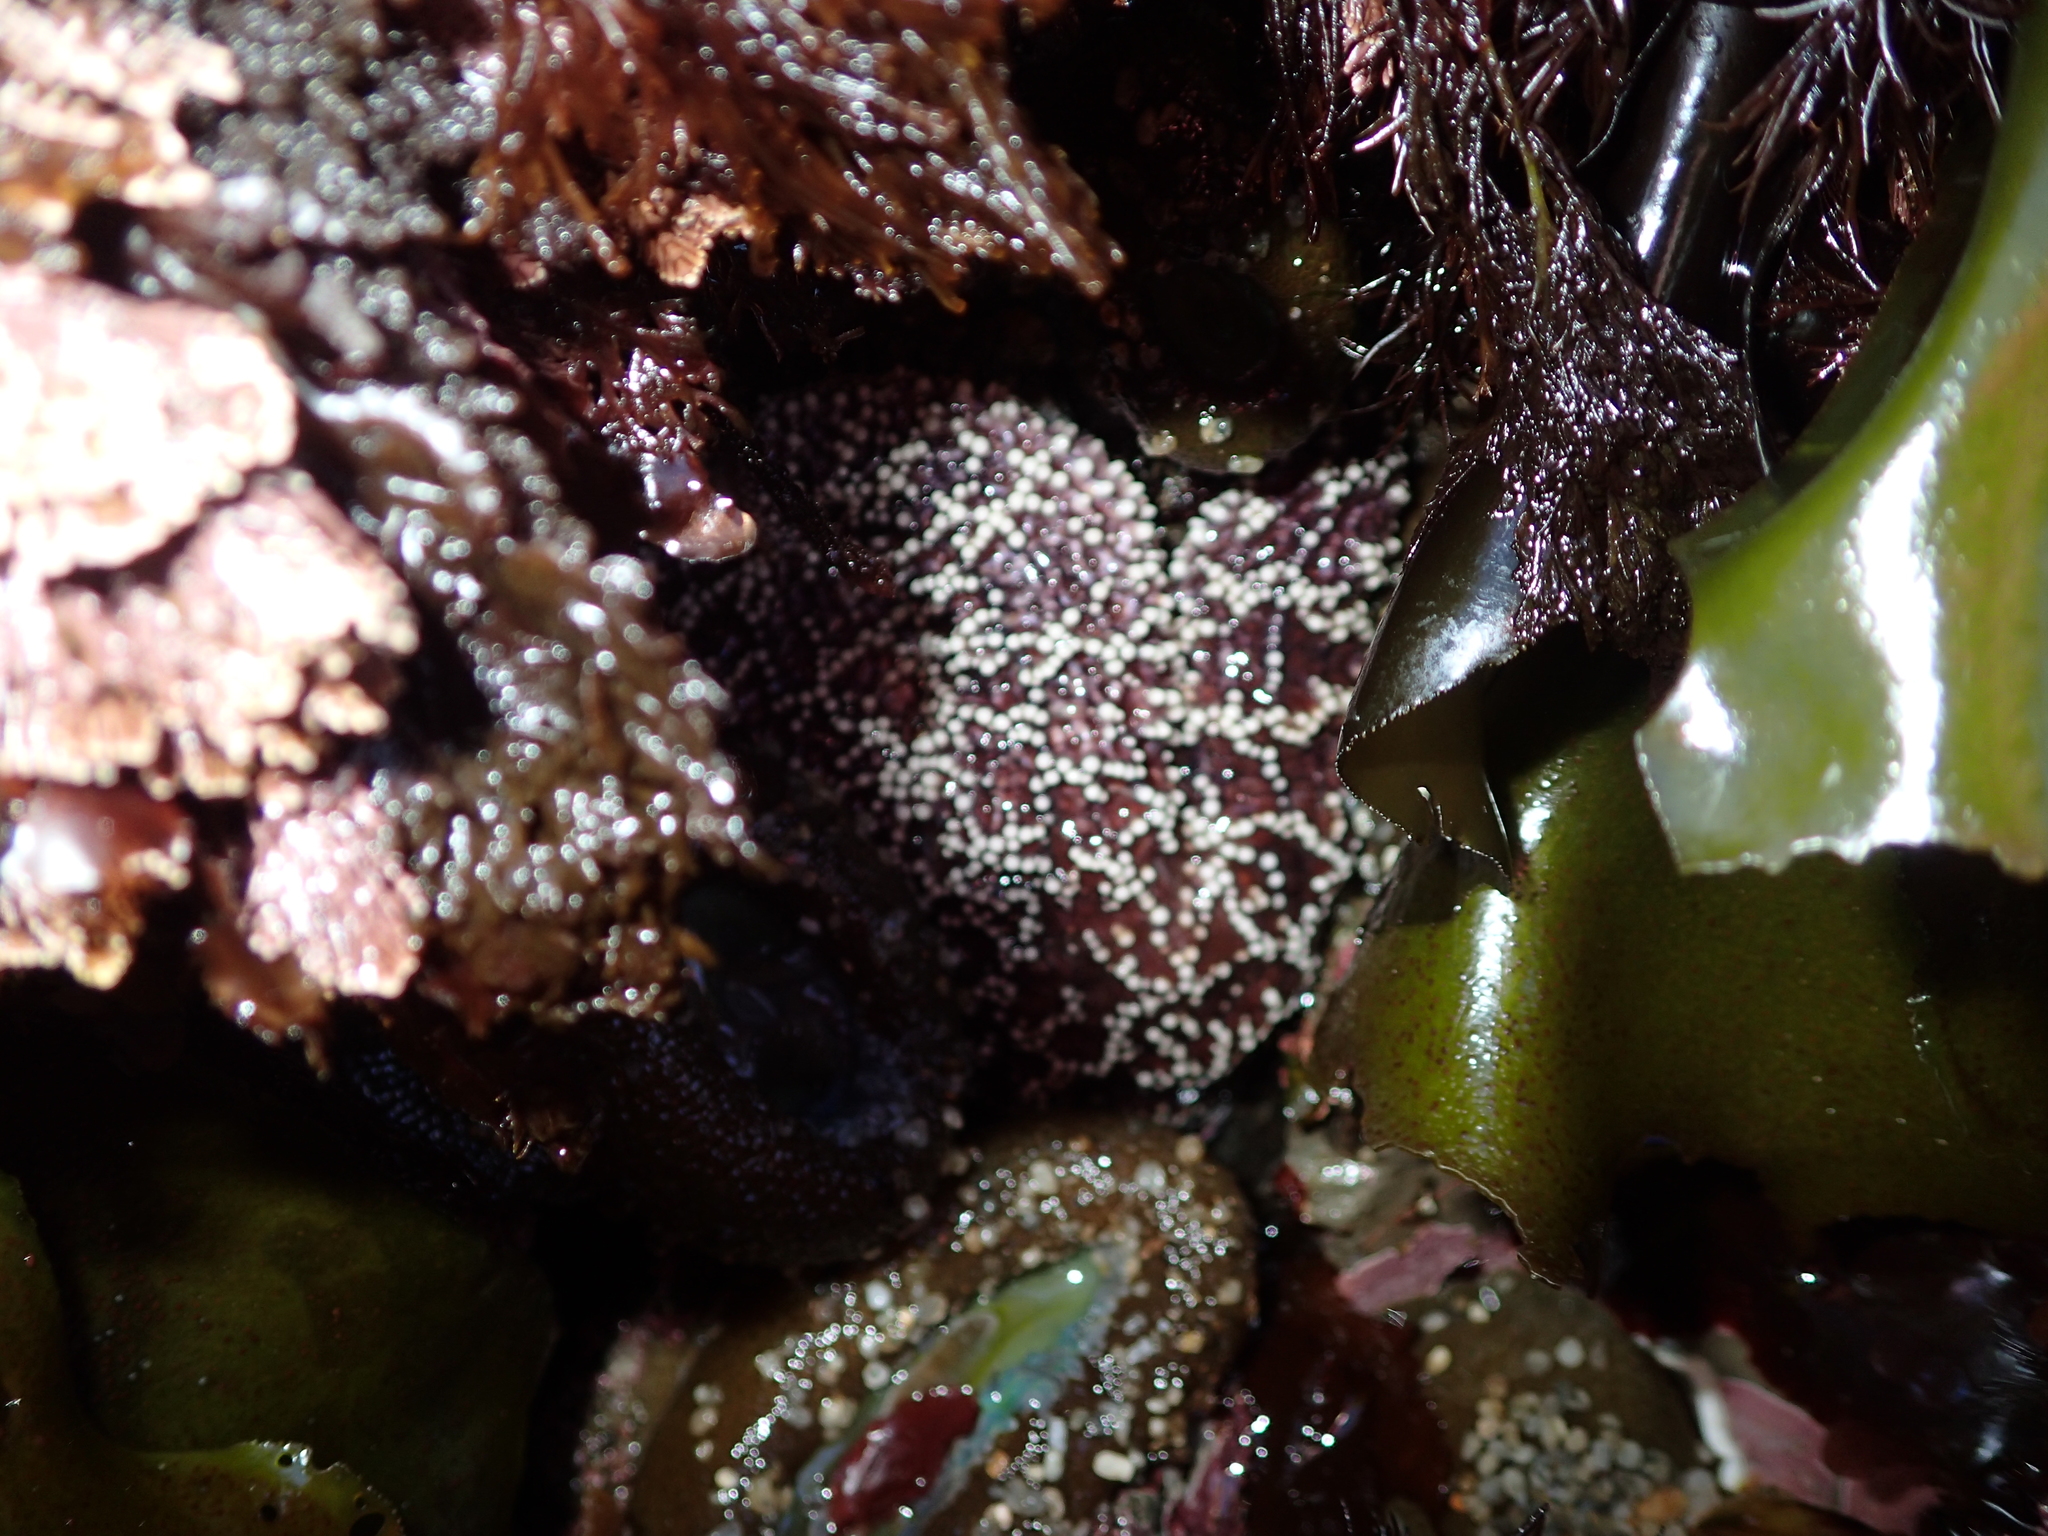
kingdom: Animalia
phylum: Echinodermata
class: Asteroidea
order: Forcipulatida
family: Asteriidae
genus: Pisaster
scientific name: Pisaster ochraceus
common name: Ochre stars
